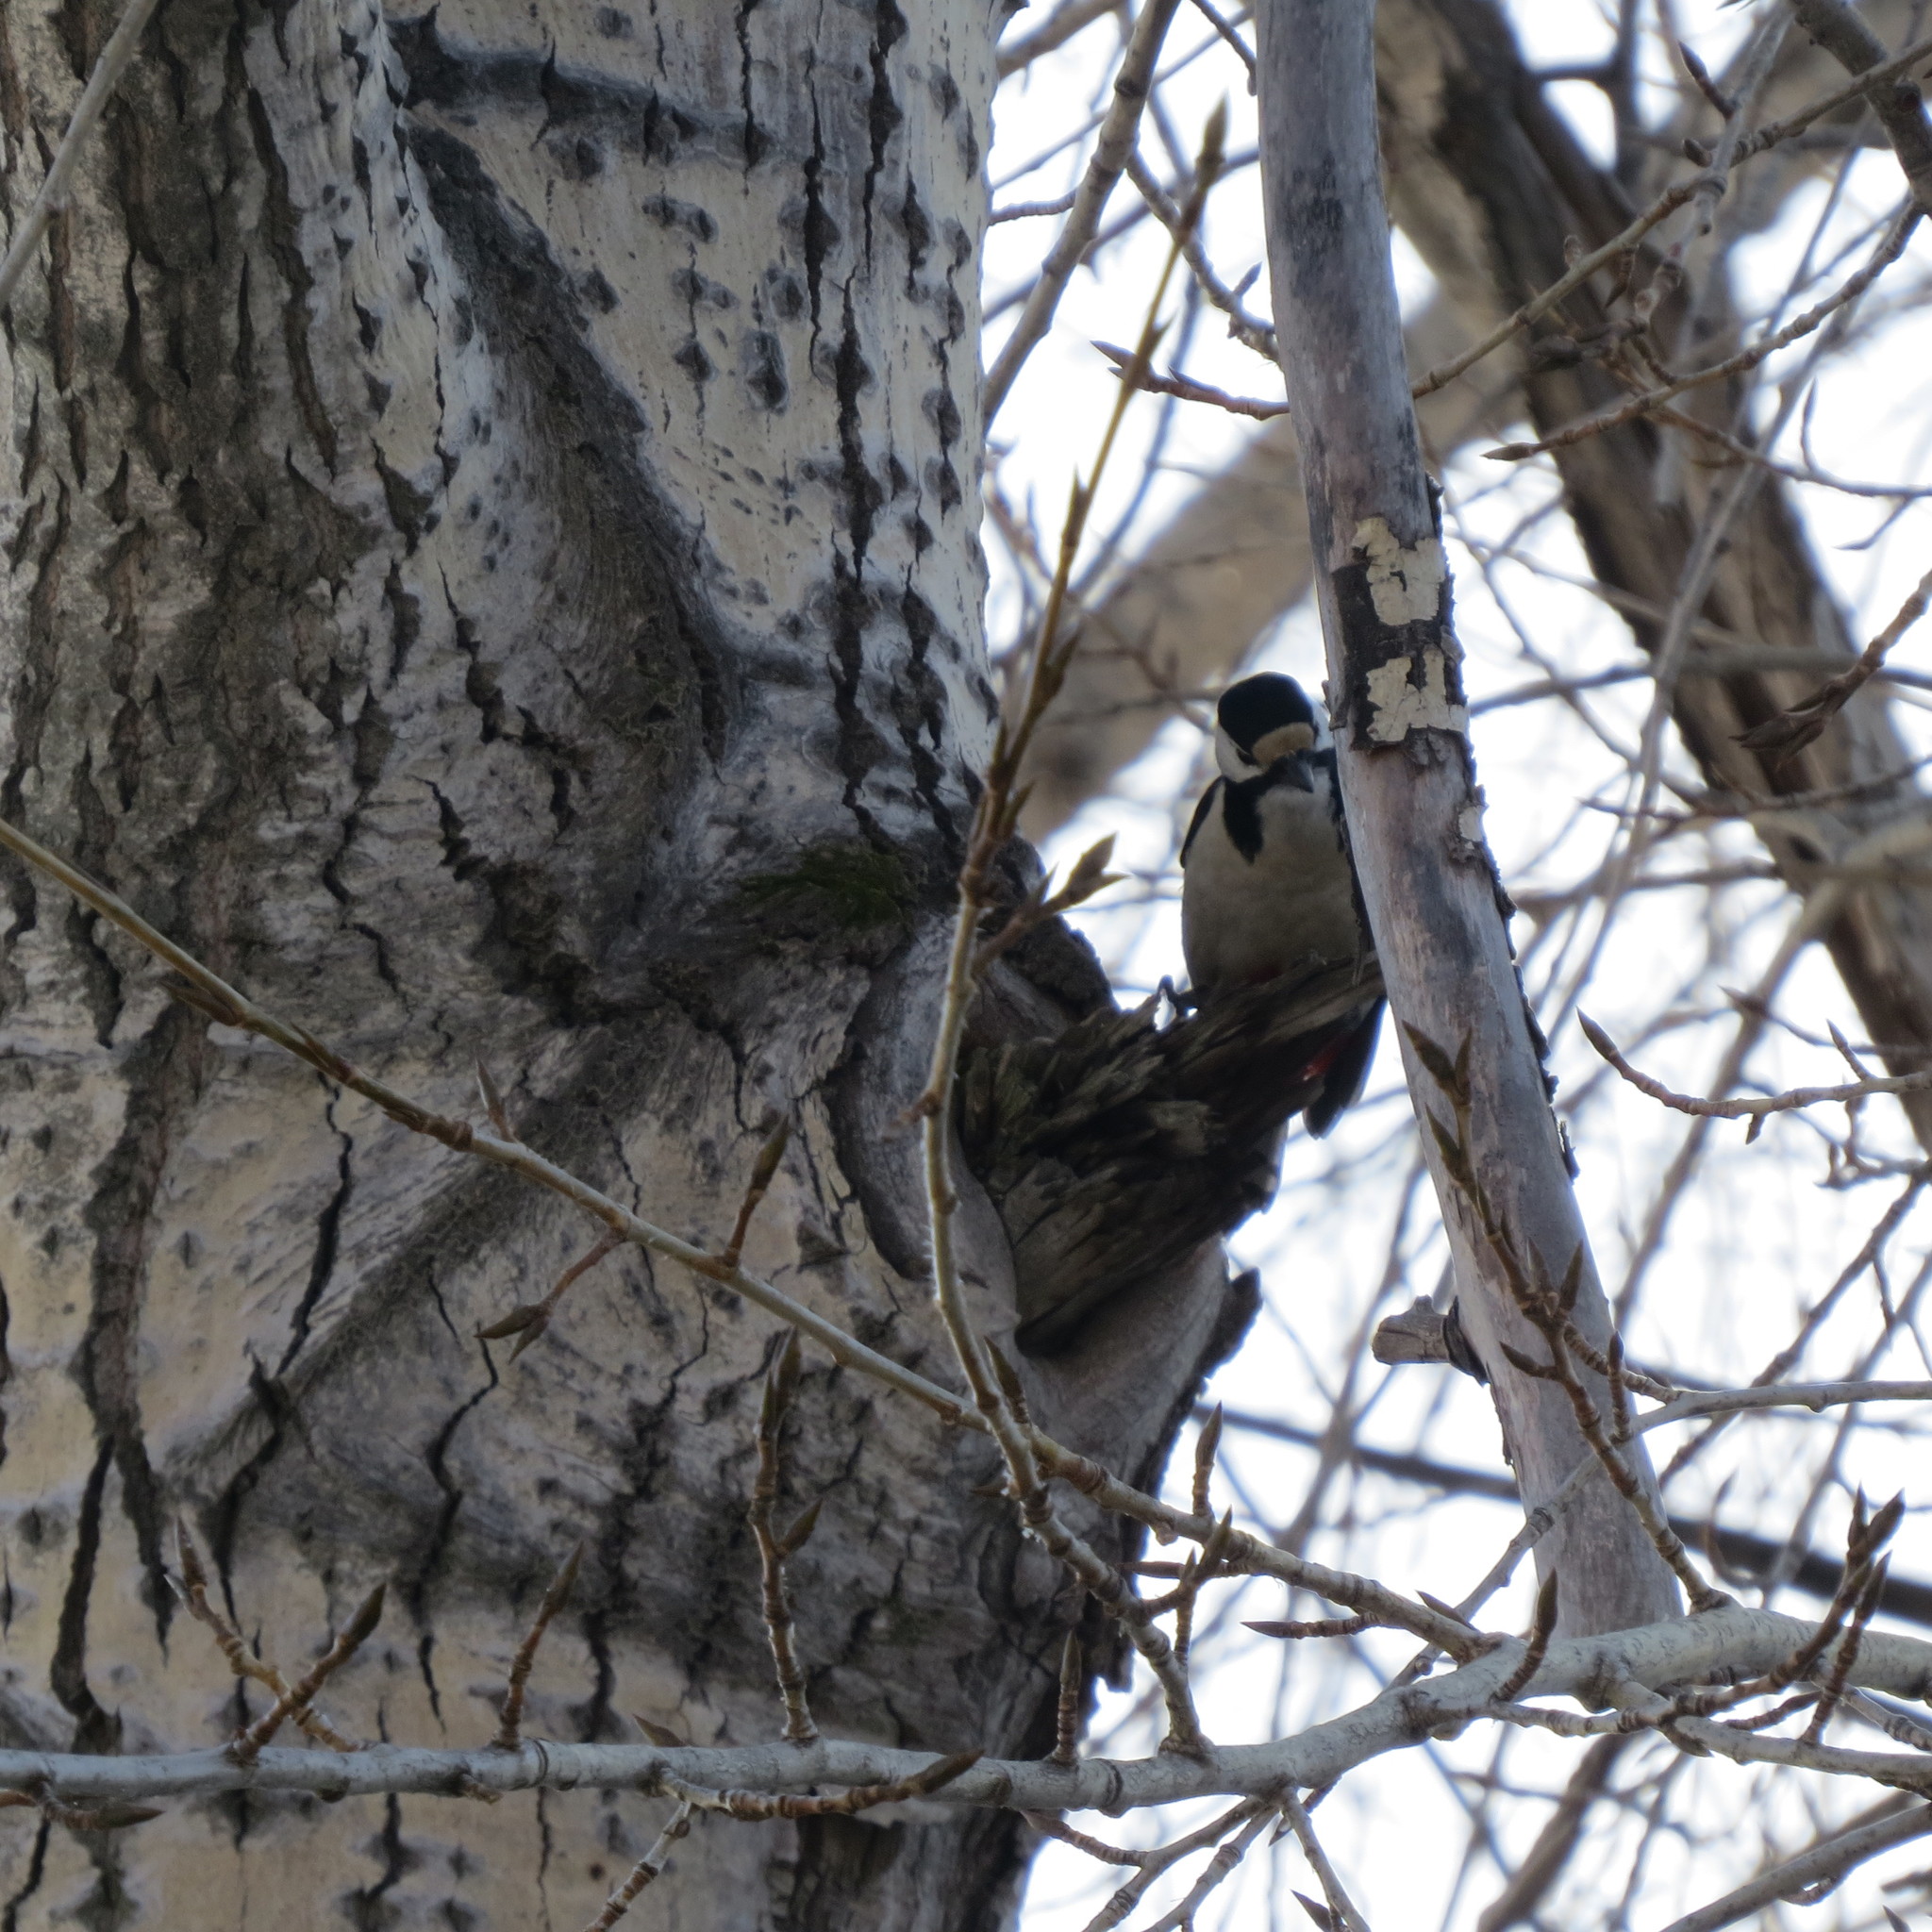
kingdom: Animalia
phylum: Chordata
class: Aves
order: Piciformes
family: Picidae
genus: Dendrocopos
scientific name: Dendrocopos major
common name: Great spotted woodpecker
